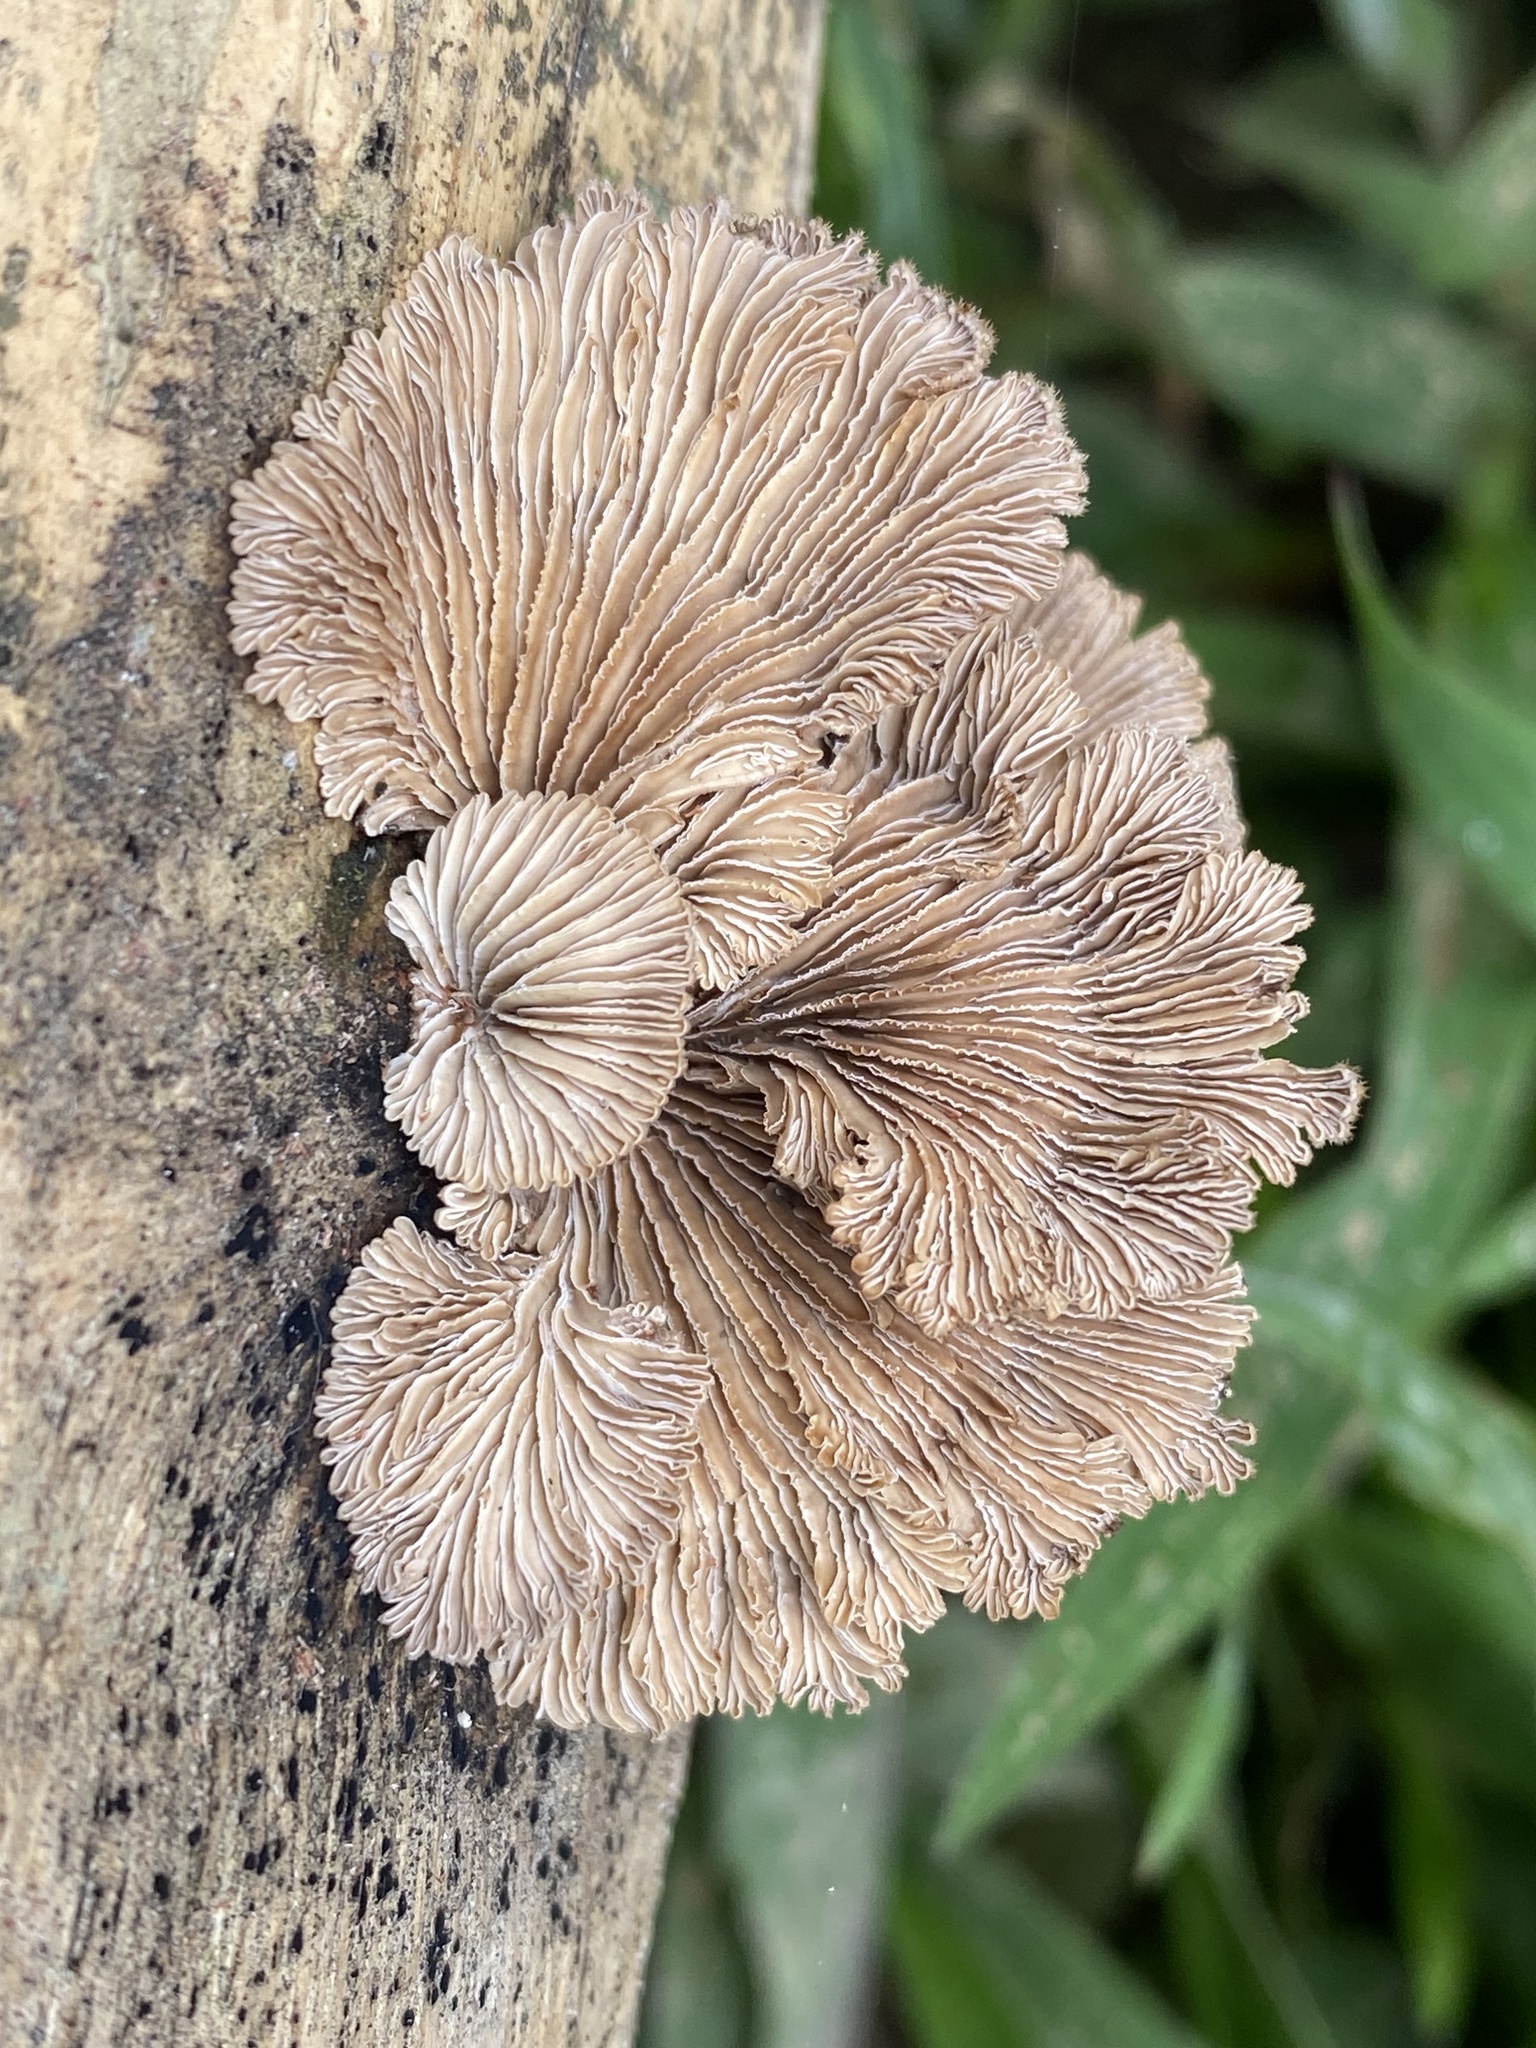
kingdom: Fungi
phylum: Basidiomycota
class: Agaricomycetes
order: Agaricales
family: Schizophyllaceae
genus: Schizophyllum
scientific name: Schizophyllum commune
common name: Common porecrust
